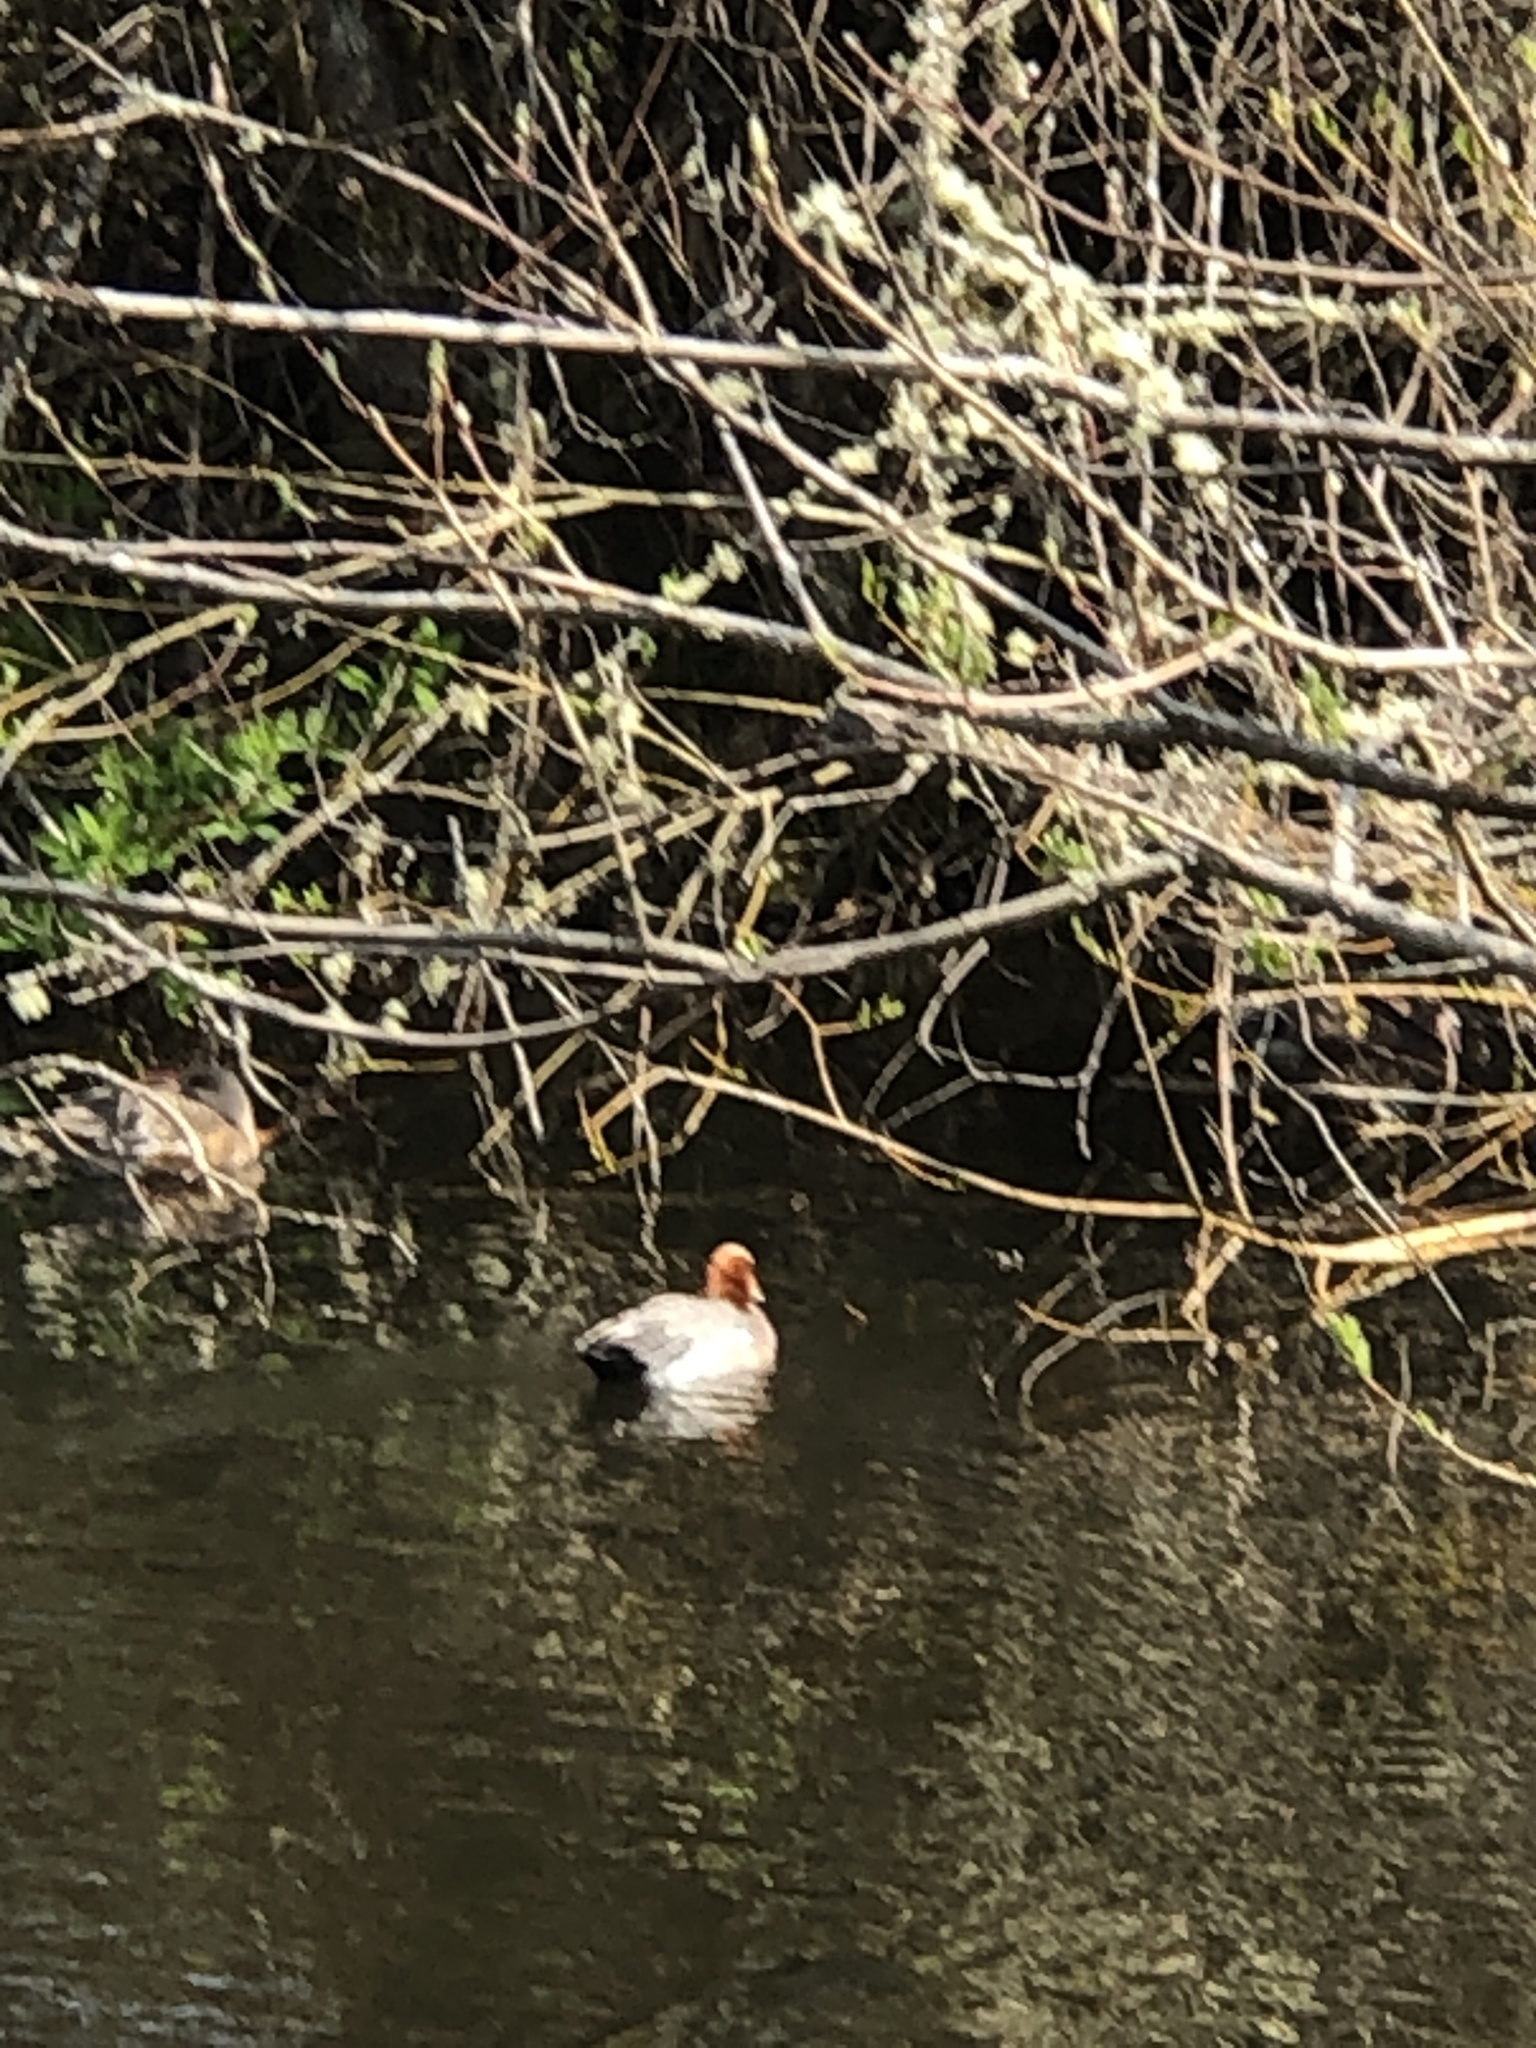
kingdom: Animalia
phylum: Chordata
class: Aves
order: Anseriformes
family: Anatidae
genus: Mareca
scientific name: Mareca penelope
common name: Eurasian wigeon
